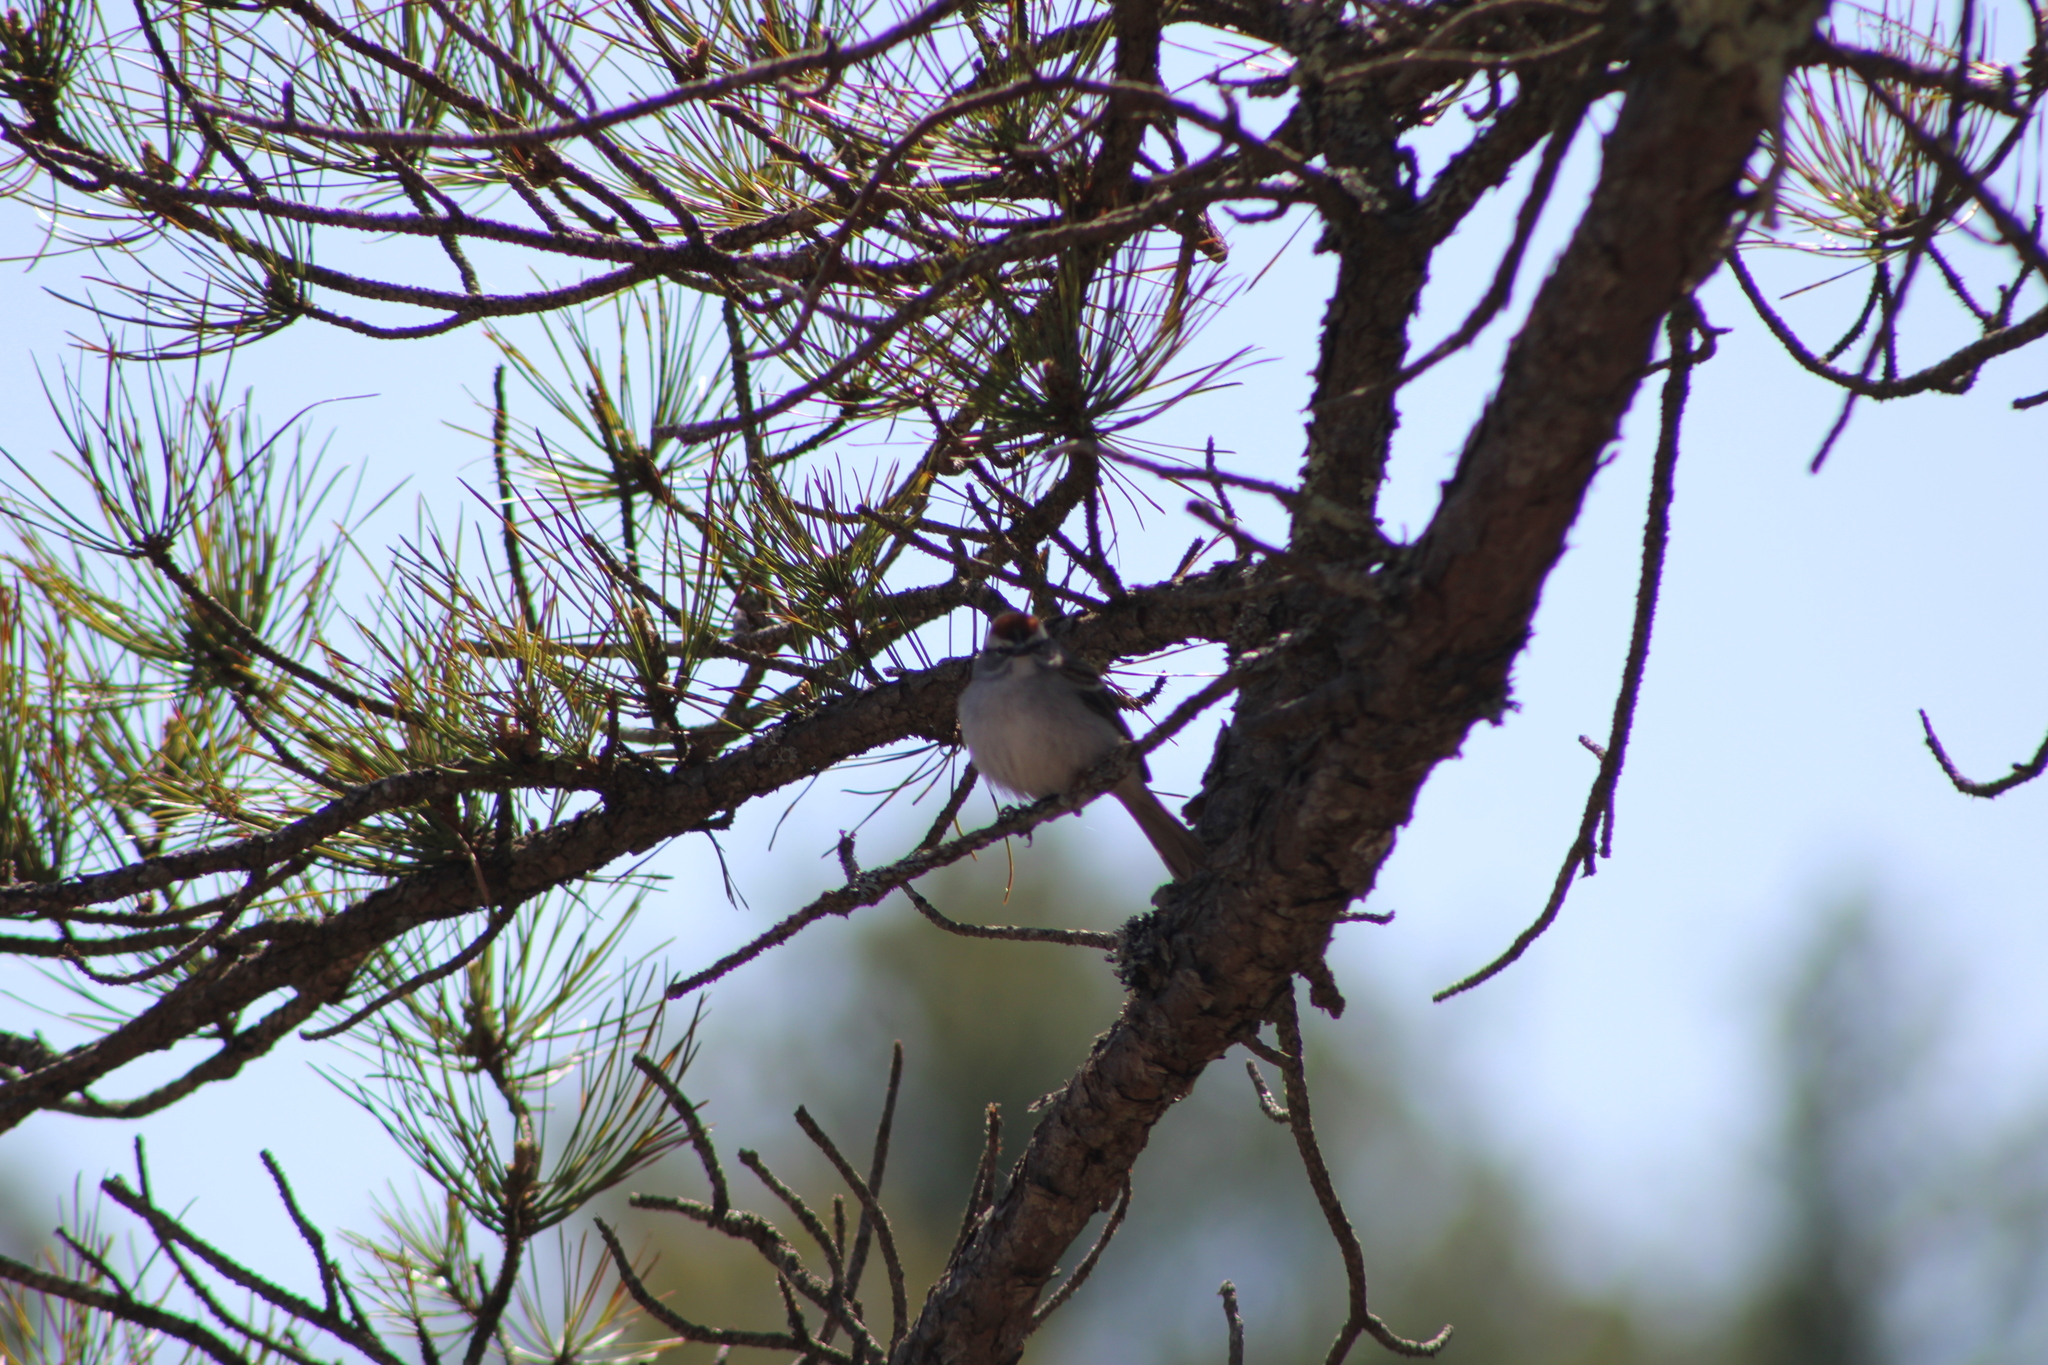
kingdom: Animalia
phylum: Chordata
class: Aves
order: Passeriformes
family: Passerellidae
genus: Spizella
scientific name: Spizella passerina
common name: Chipping sparrow
